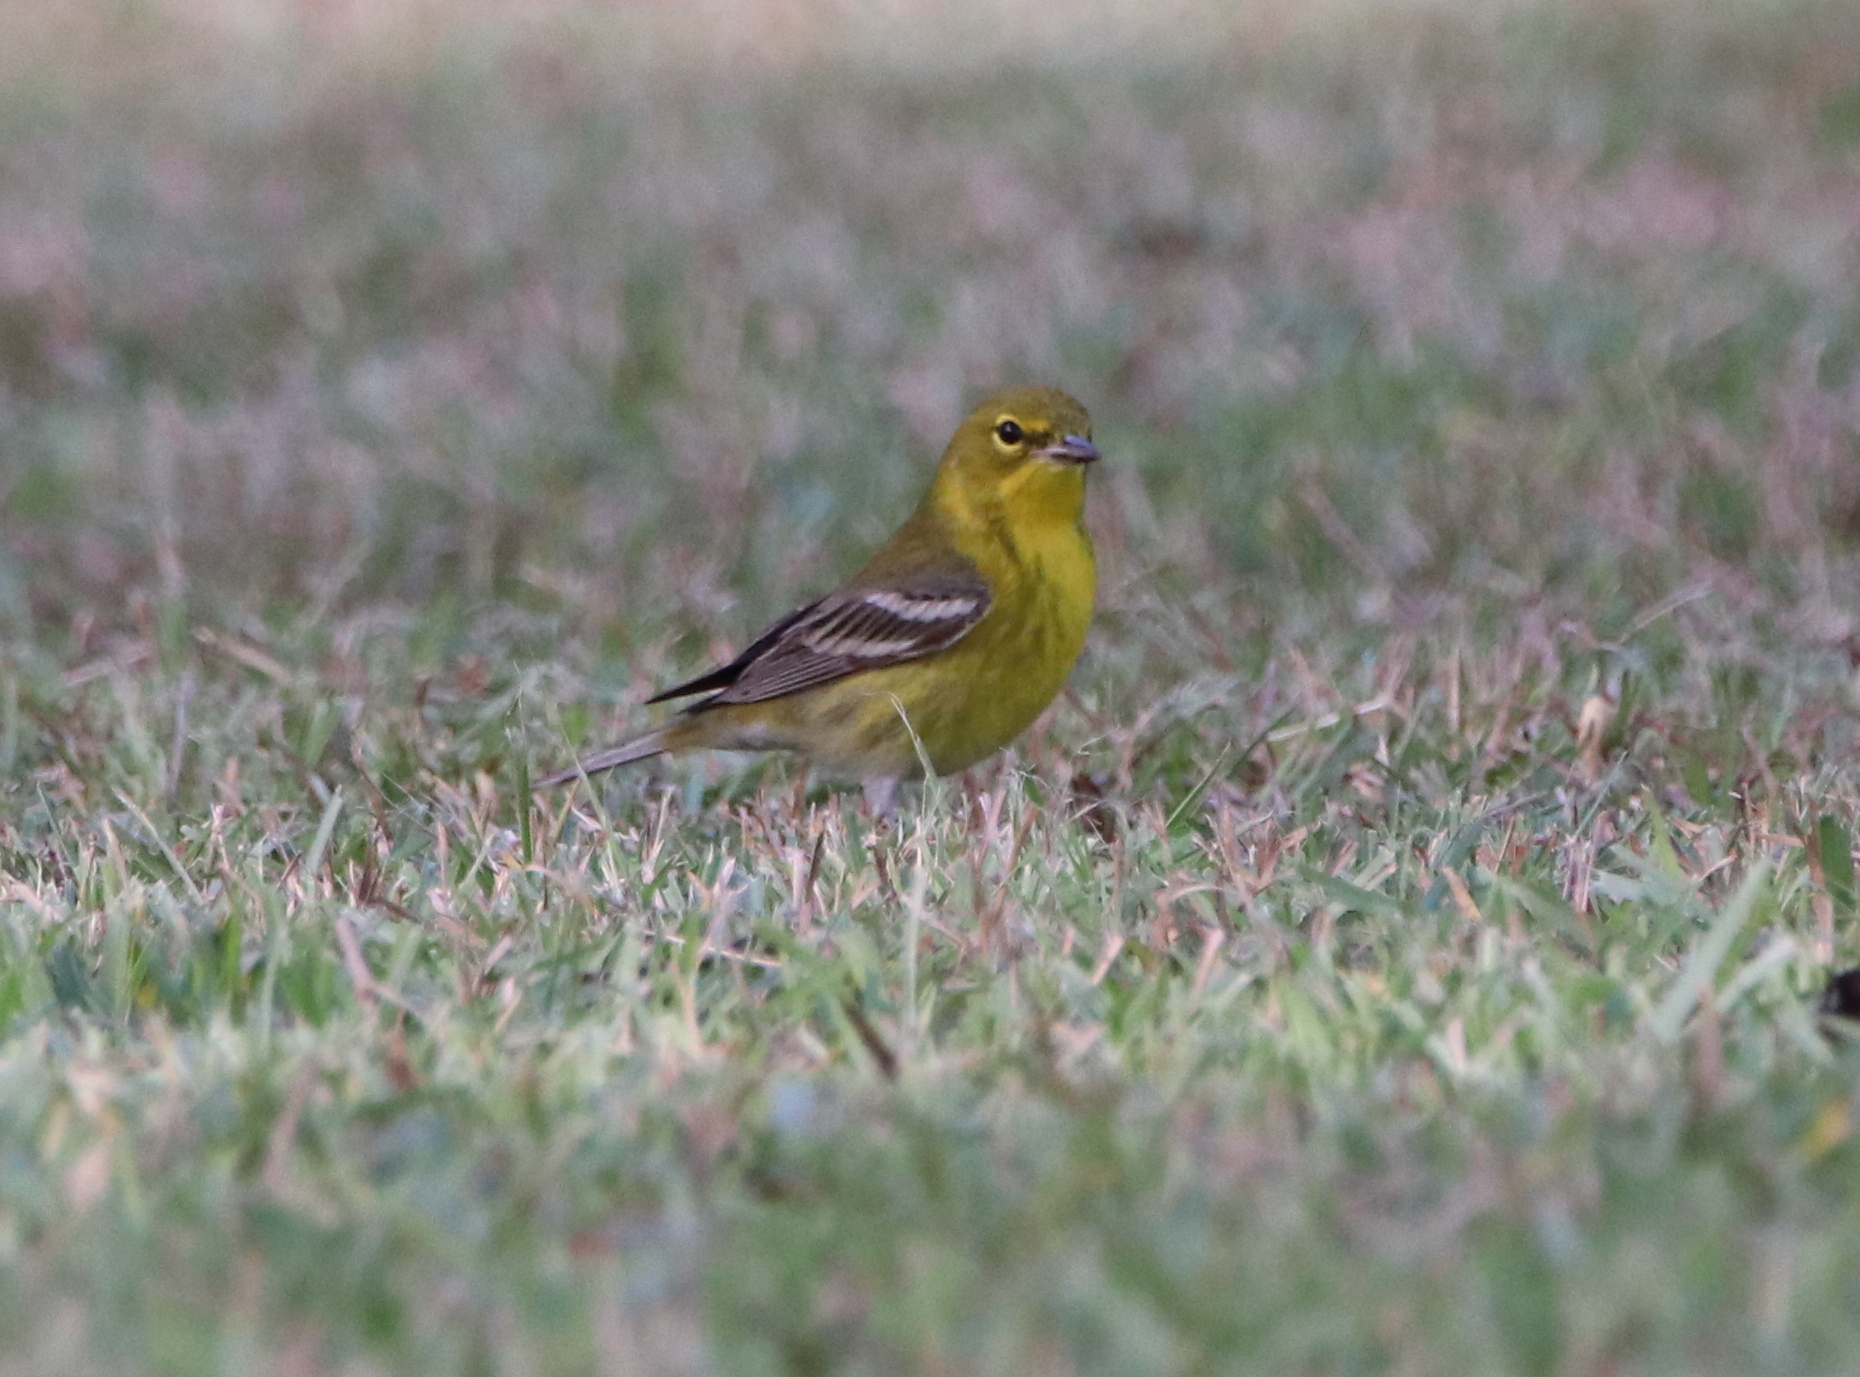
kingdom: Animalia
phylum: Chordata
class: Aves
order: Passeriformes
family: Parulidae
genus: Setophaga
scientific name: Setophaga pinus
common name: Pine warbler
